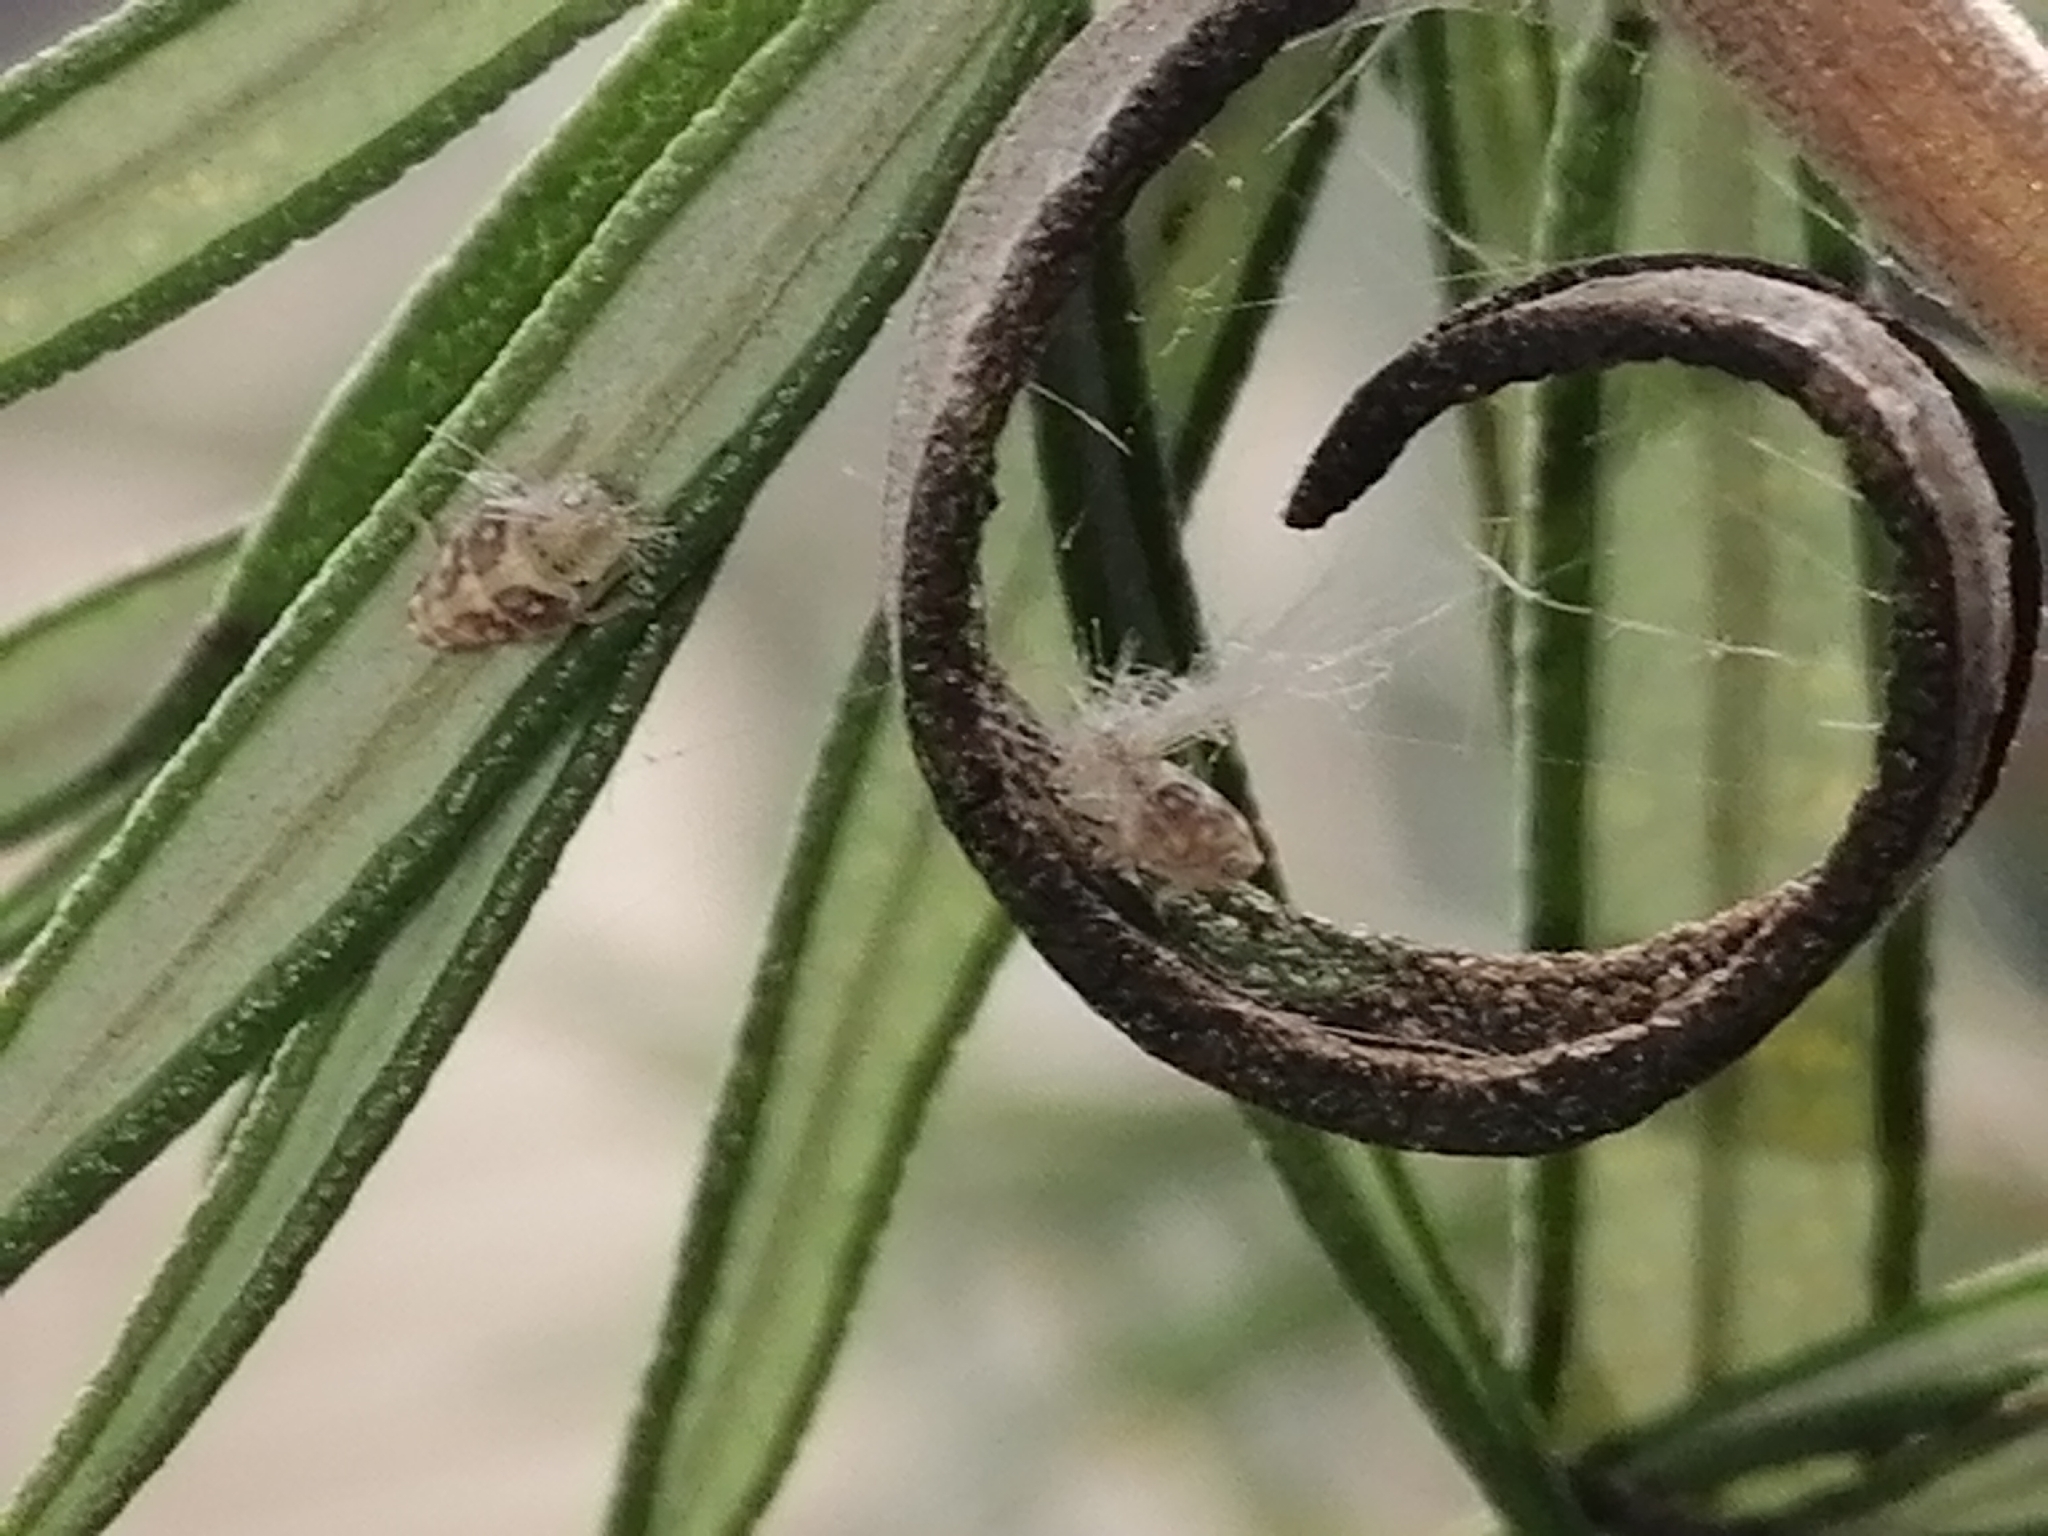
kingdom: Animalia
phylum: Arthropoda
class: Insecta
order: Hemiptera
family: Ricaniidae
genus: Scolypopa
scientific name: Scolypopa australis
